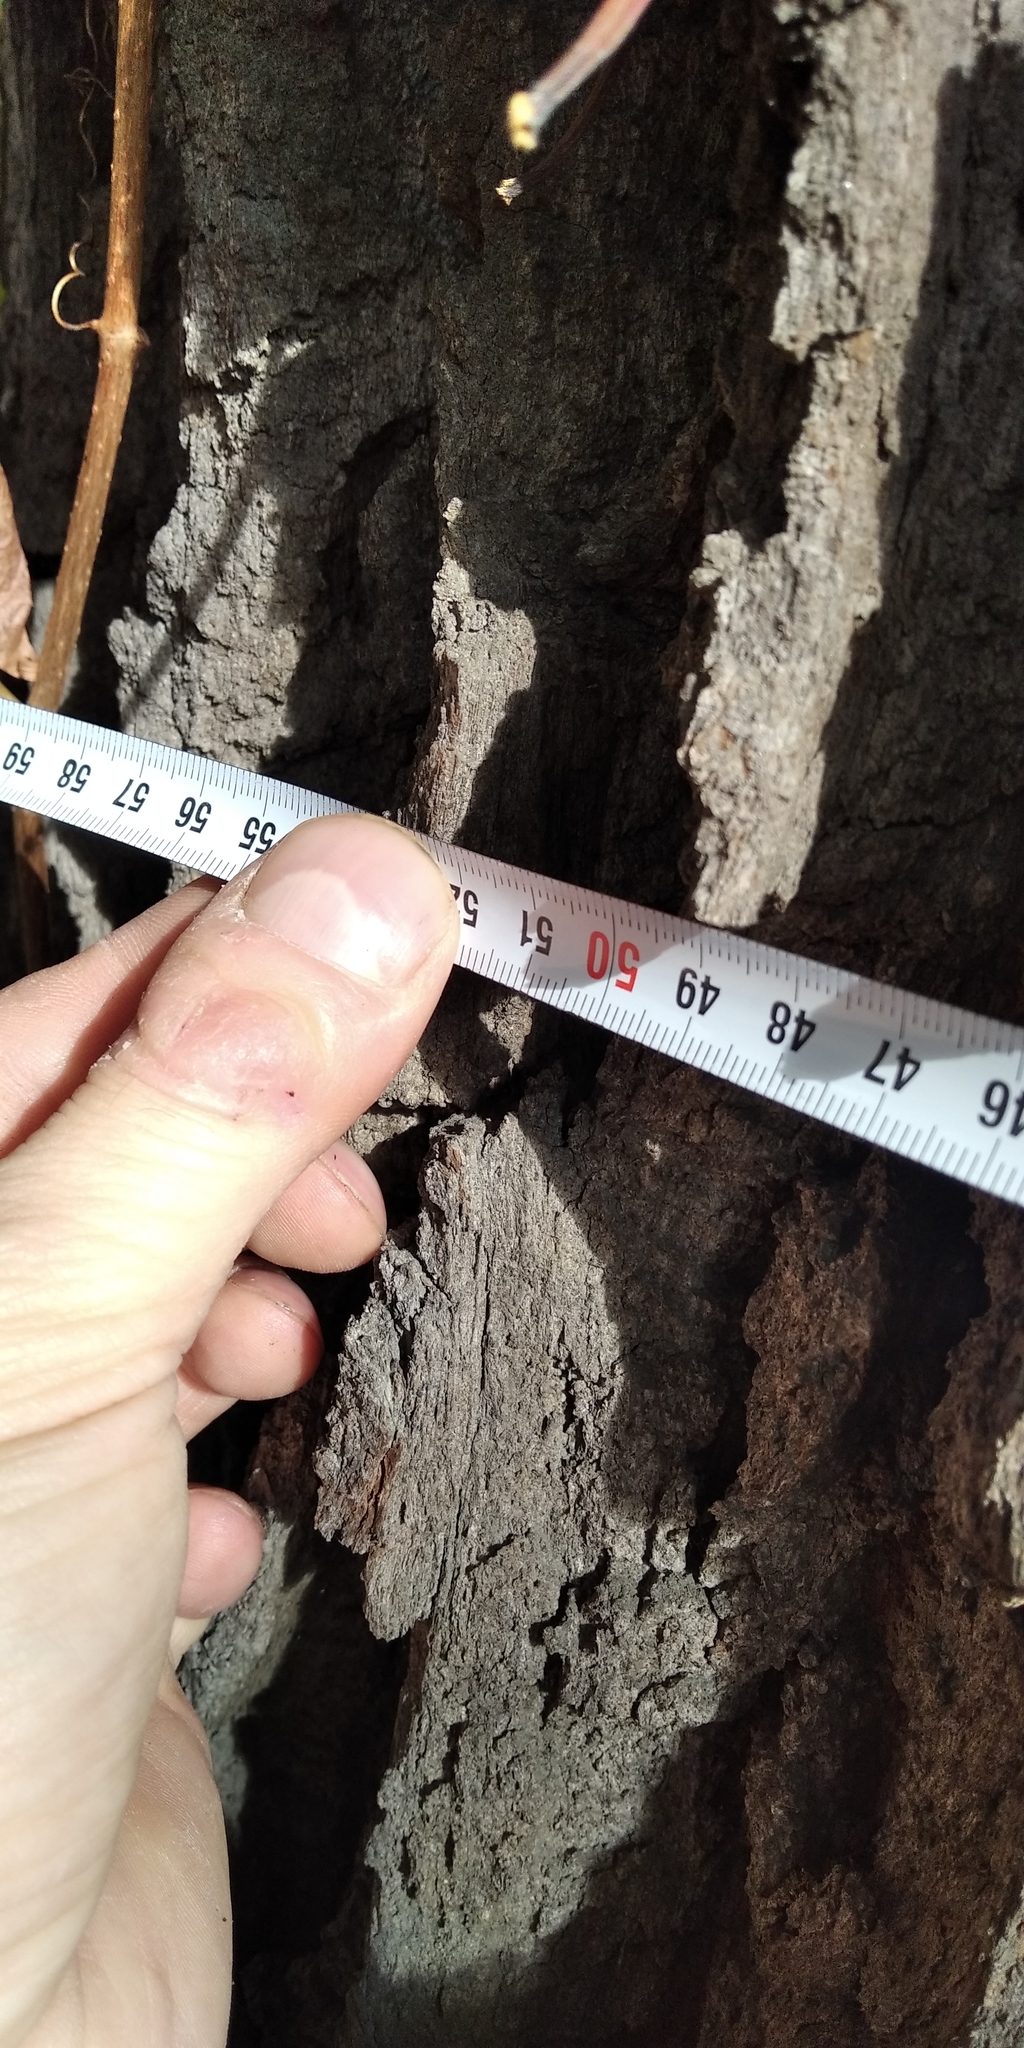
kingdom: Plantae
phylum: Tracheophyta
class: Magnoliopsida
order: Fagales
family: Fagaceae
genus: Quercus
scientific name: Quercus robur
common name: Pedunculate oak
